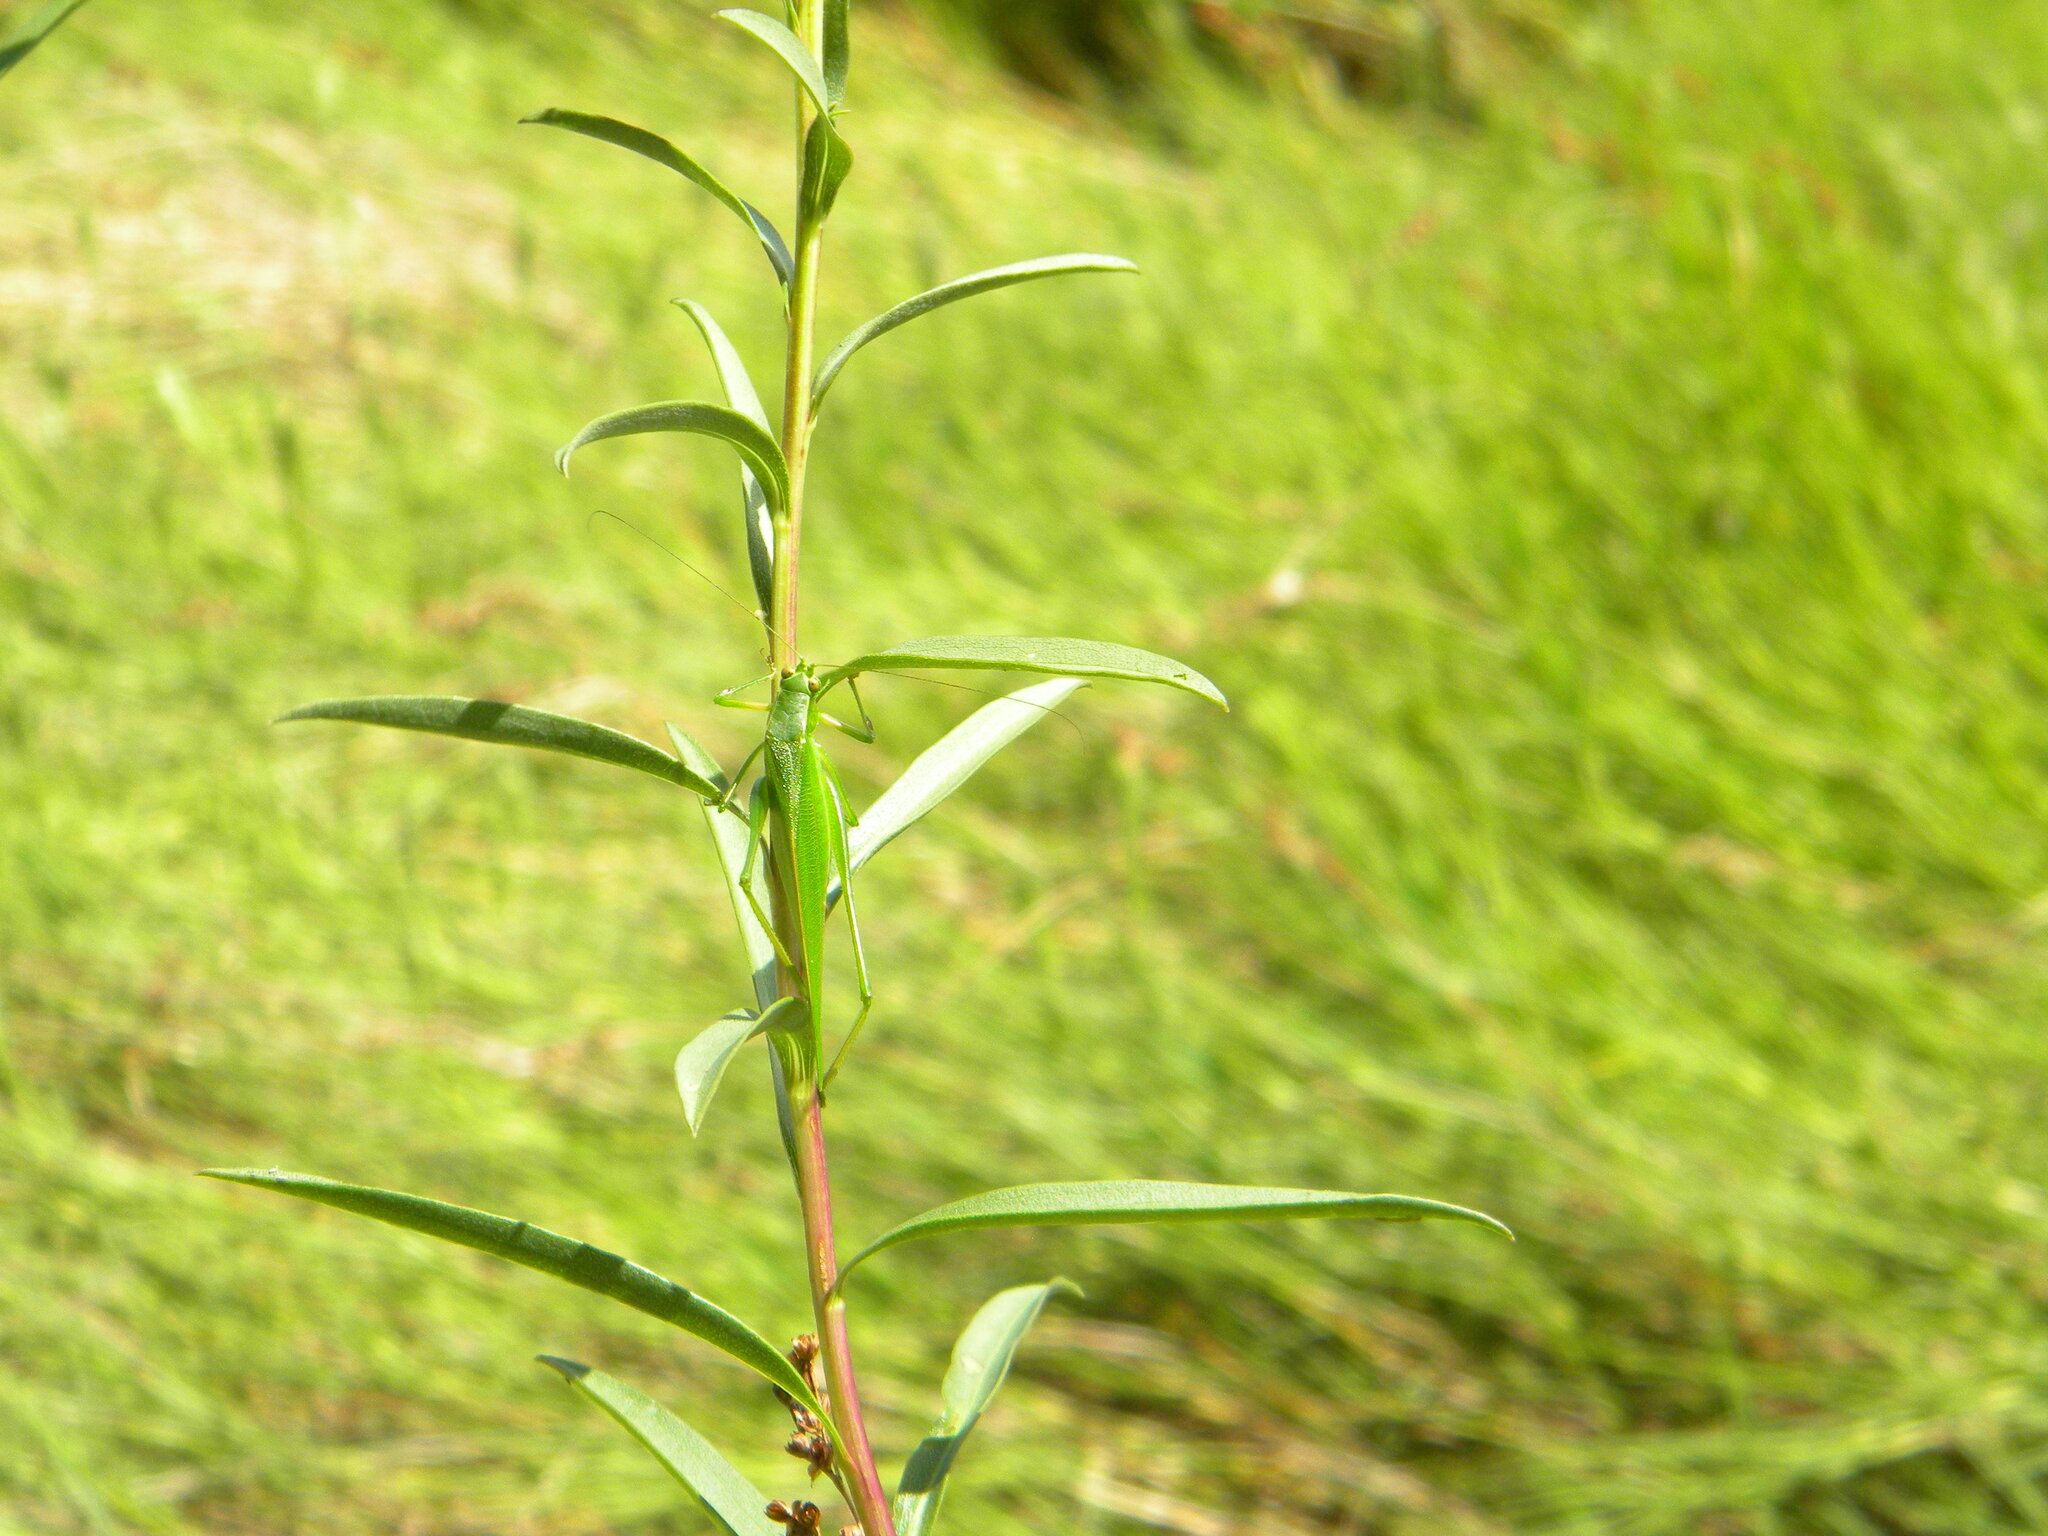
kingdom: Animalia
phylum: Arthropoda
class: Insecta
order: Orthoptera
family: Tettigoniidae
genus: Scudderia
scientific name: Scudderia furcata
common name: Fork-tailed bush katydid
